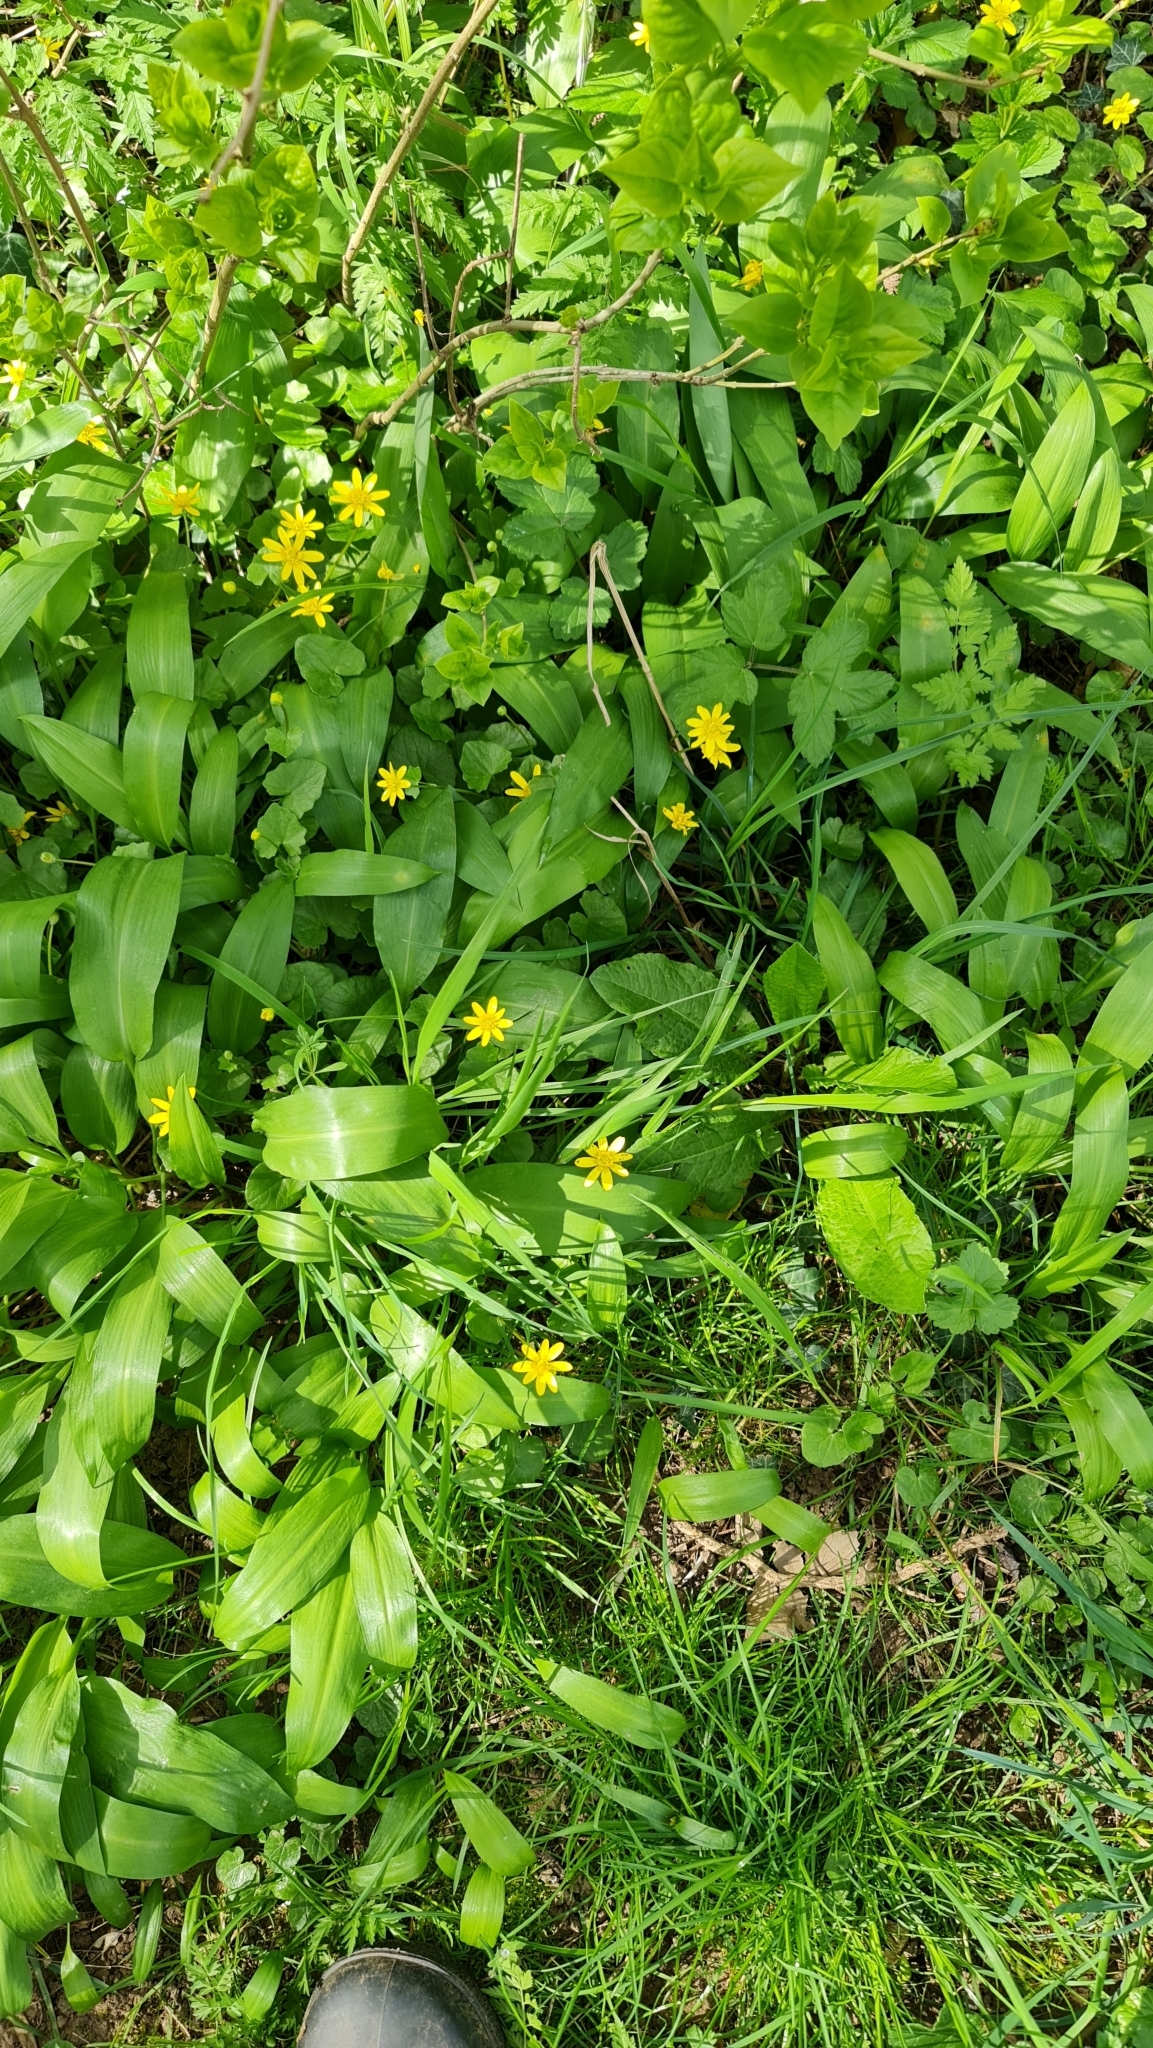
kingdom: Plantae
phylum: Tracheophyta
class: Magnoliopsida
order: Ranunculales
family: Ranunculaceae
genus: Ficaria
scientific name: Ficaria verna
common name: Lesser celandine
